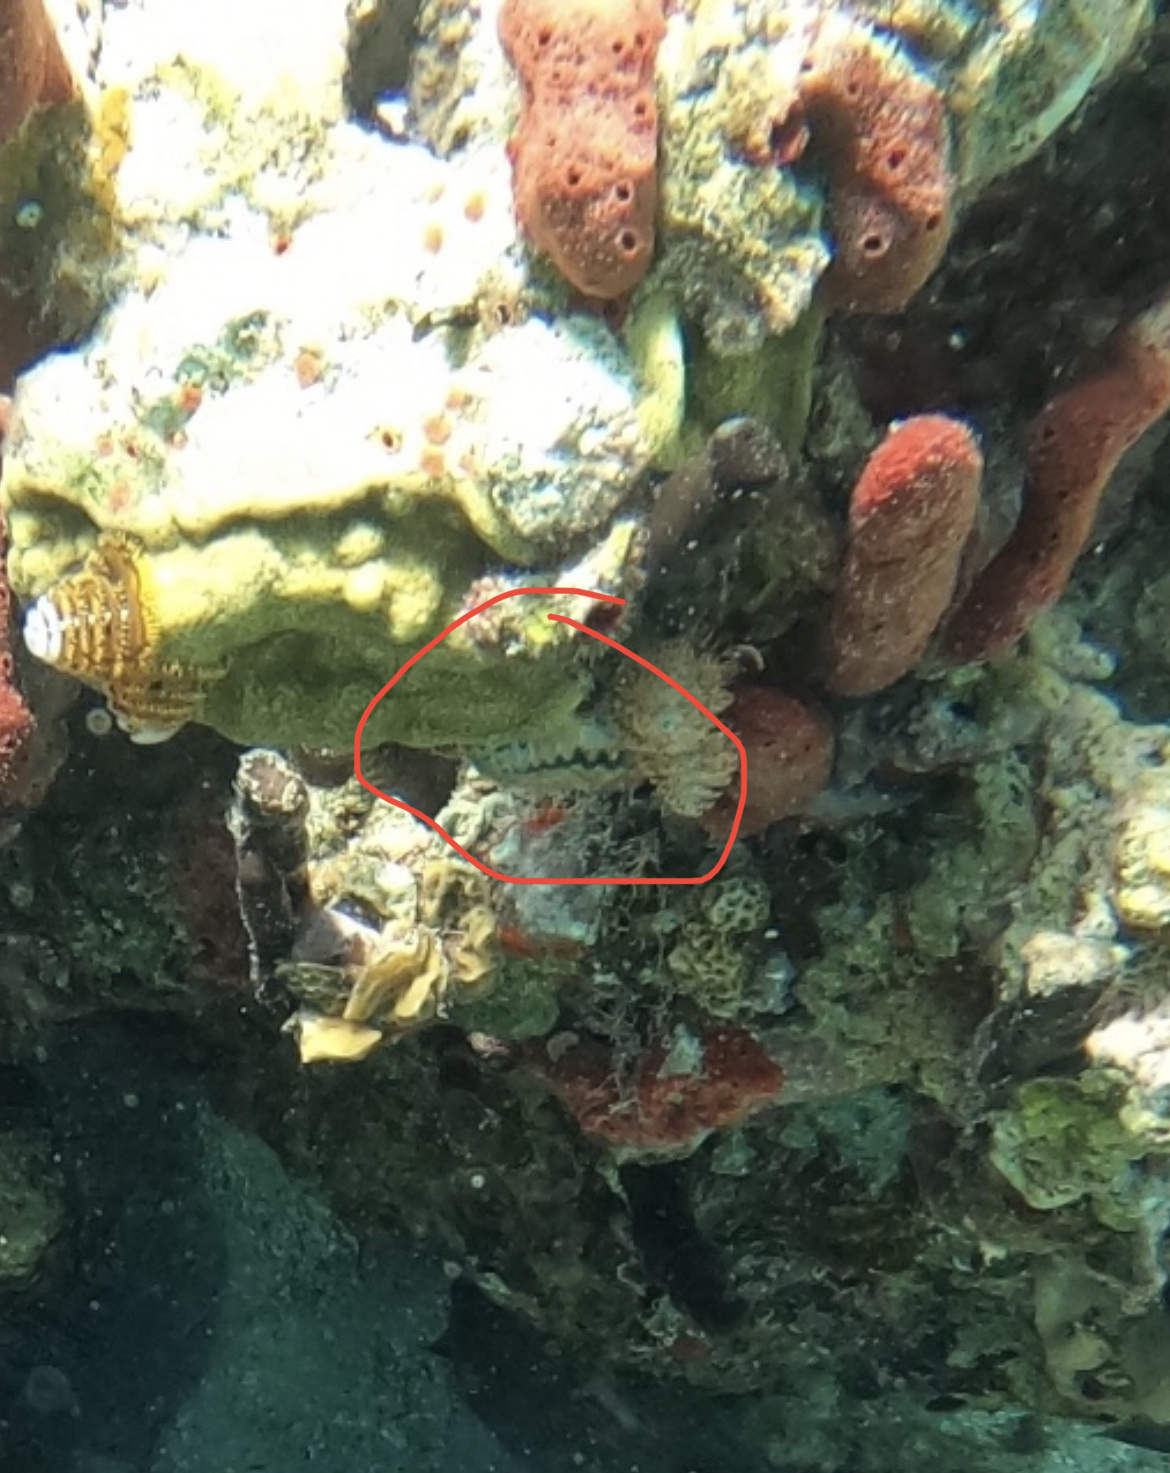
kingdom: Animalia
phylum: Mollusca
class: Bivalvia
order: Ostreida
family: Ostreidae
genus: Dendostrea
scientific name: Dendostrea frons
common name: Frond oyster
